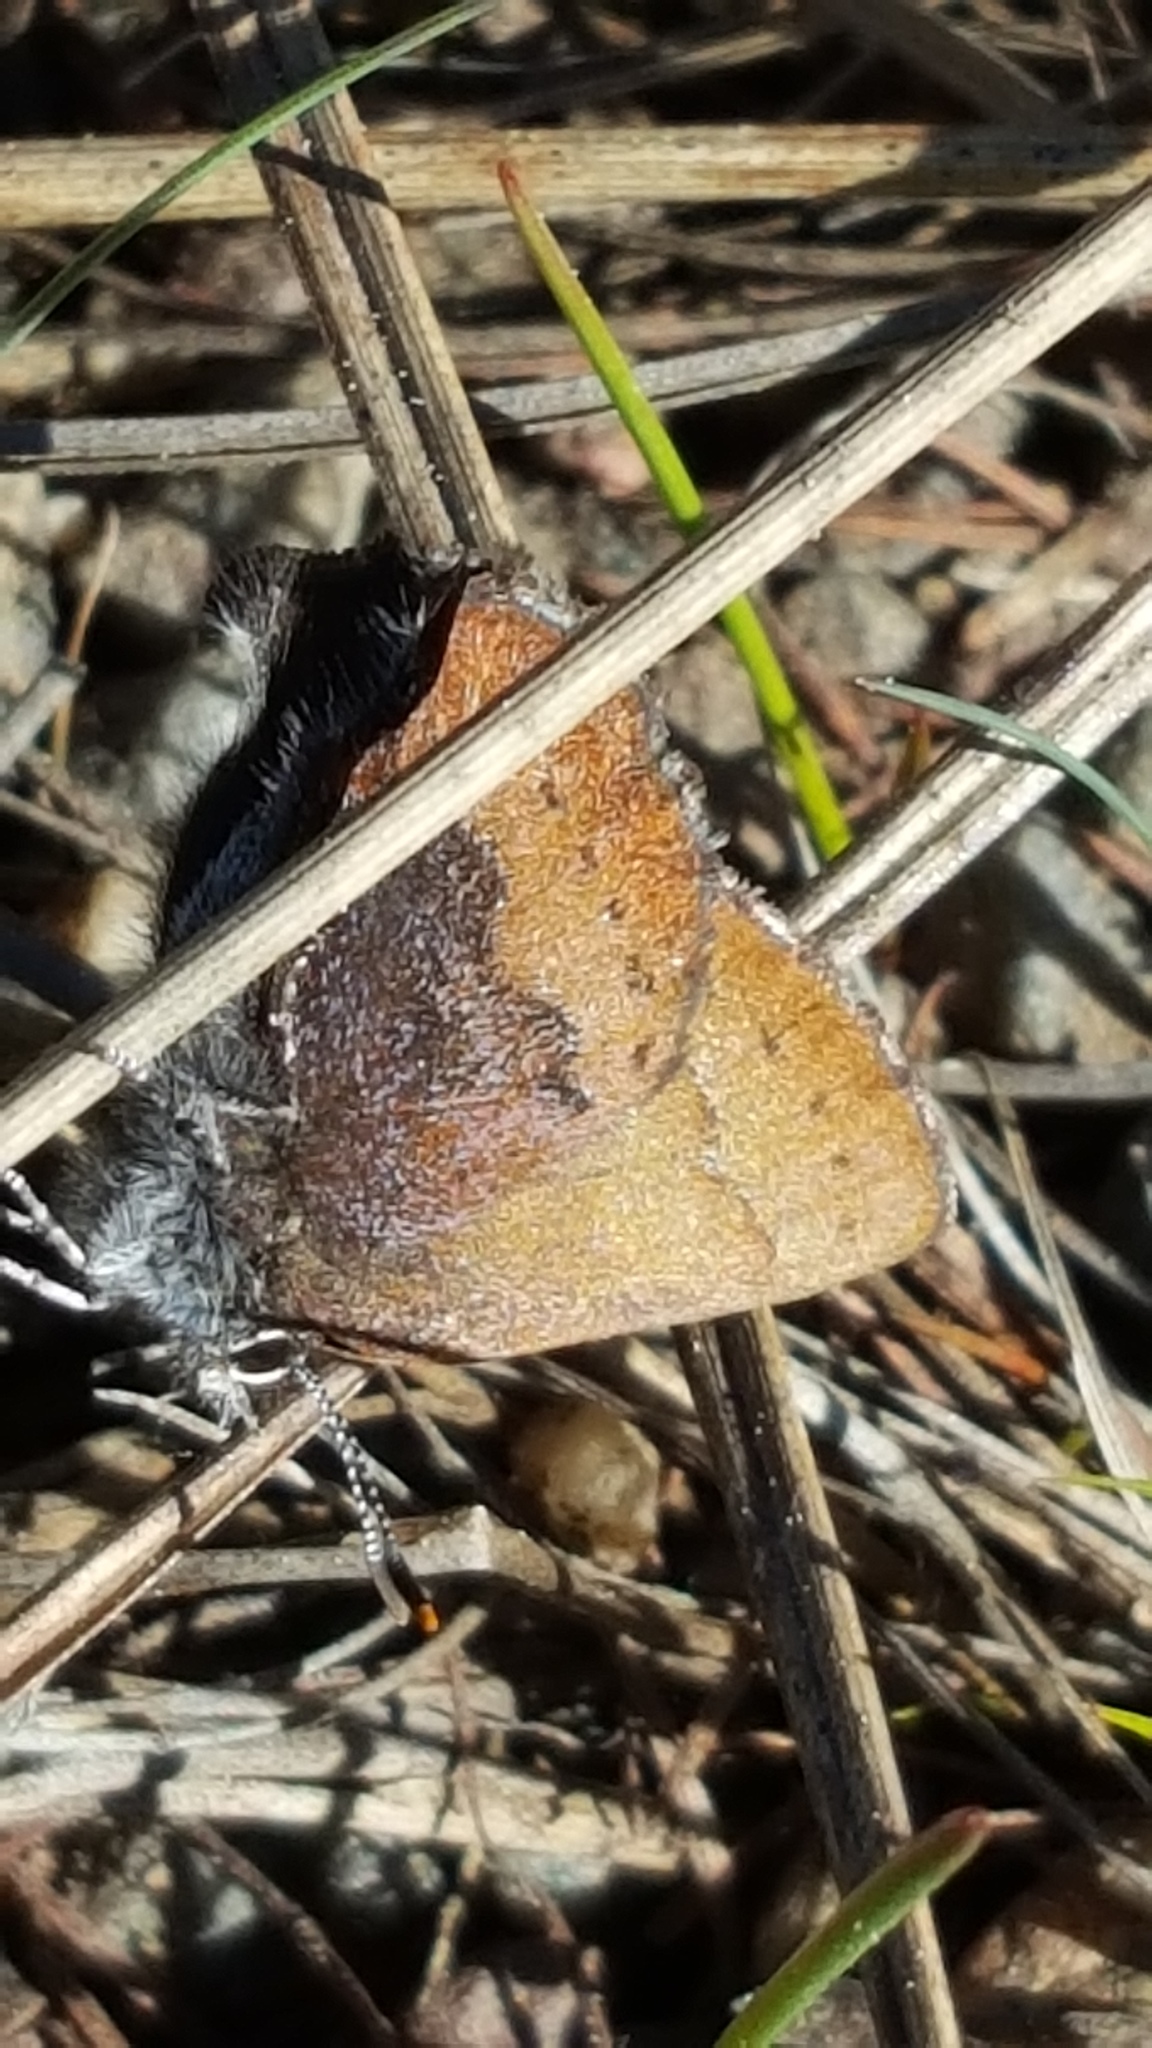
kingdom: Animalia
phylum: Arthropoda
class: Insecta
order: Lepidoptera
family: Lycaenidae
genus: Incisalia
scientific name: Incisalia irioides
